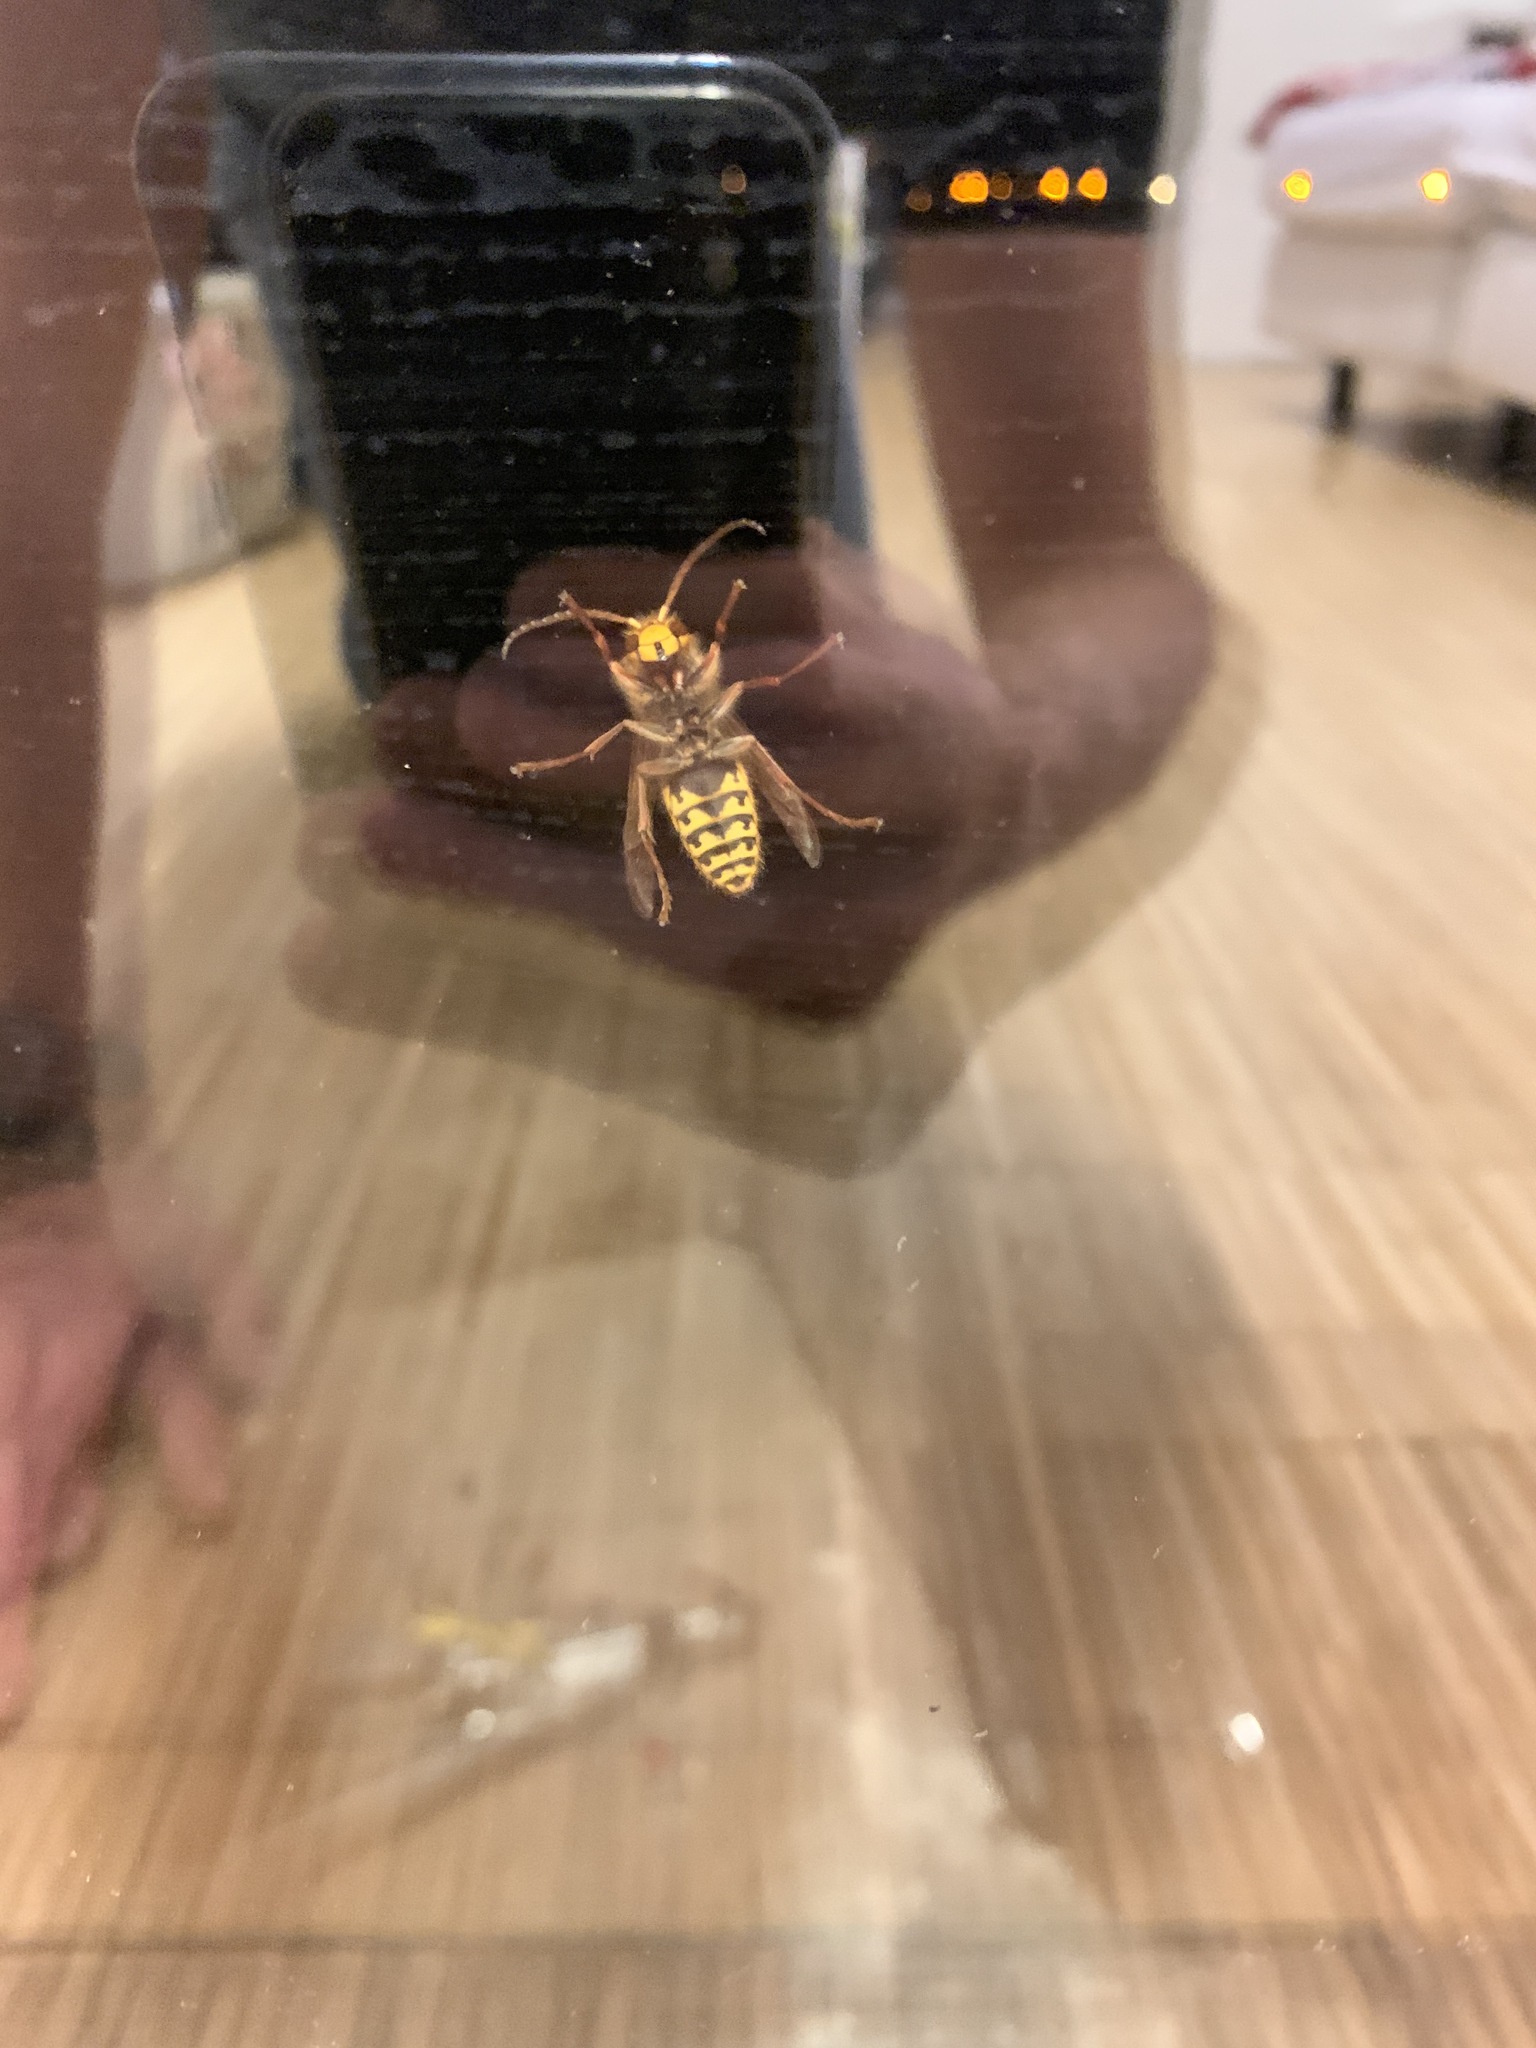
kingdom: Animalia
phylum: Arthropoda
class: Insecta
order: Hymenoptera
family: Vespidae
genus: Vespa
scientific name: Vespa crabro
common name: Hornet
